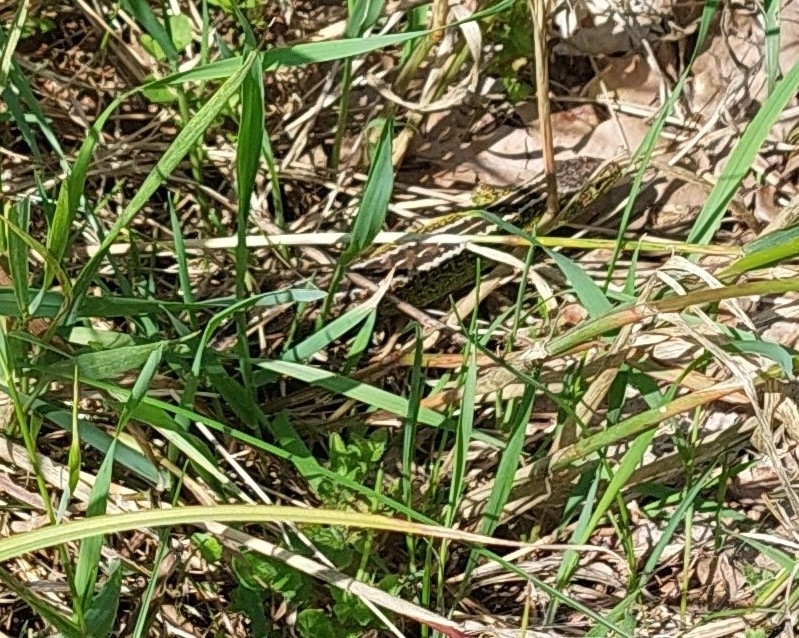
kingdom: Animalia
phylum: Chordata
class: Squamata
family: Lacertidae
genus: Lacerta
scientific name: Lacerta agilis
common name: Sand lizard
